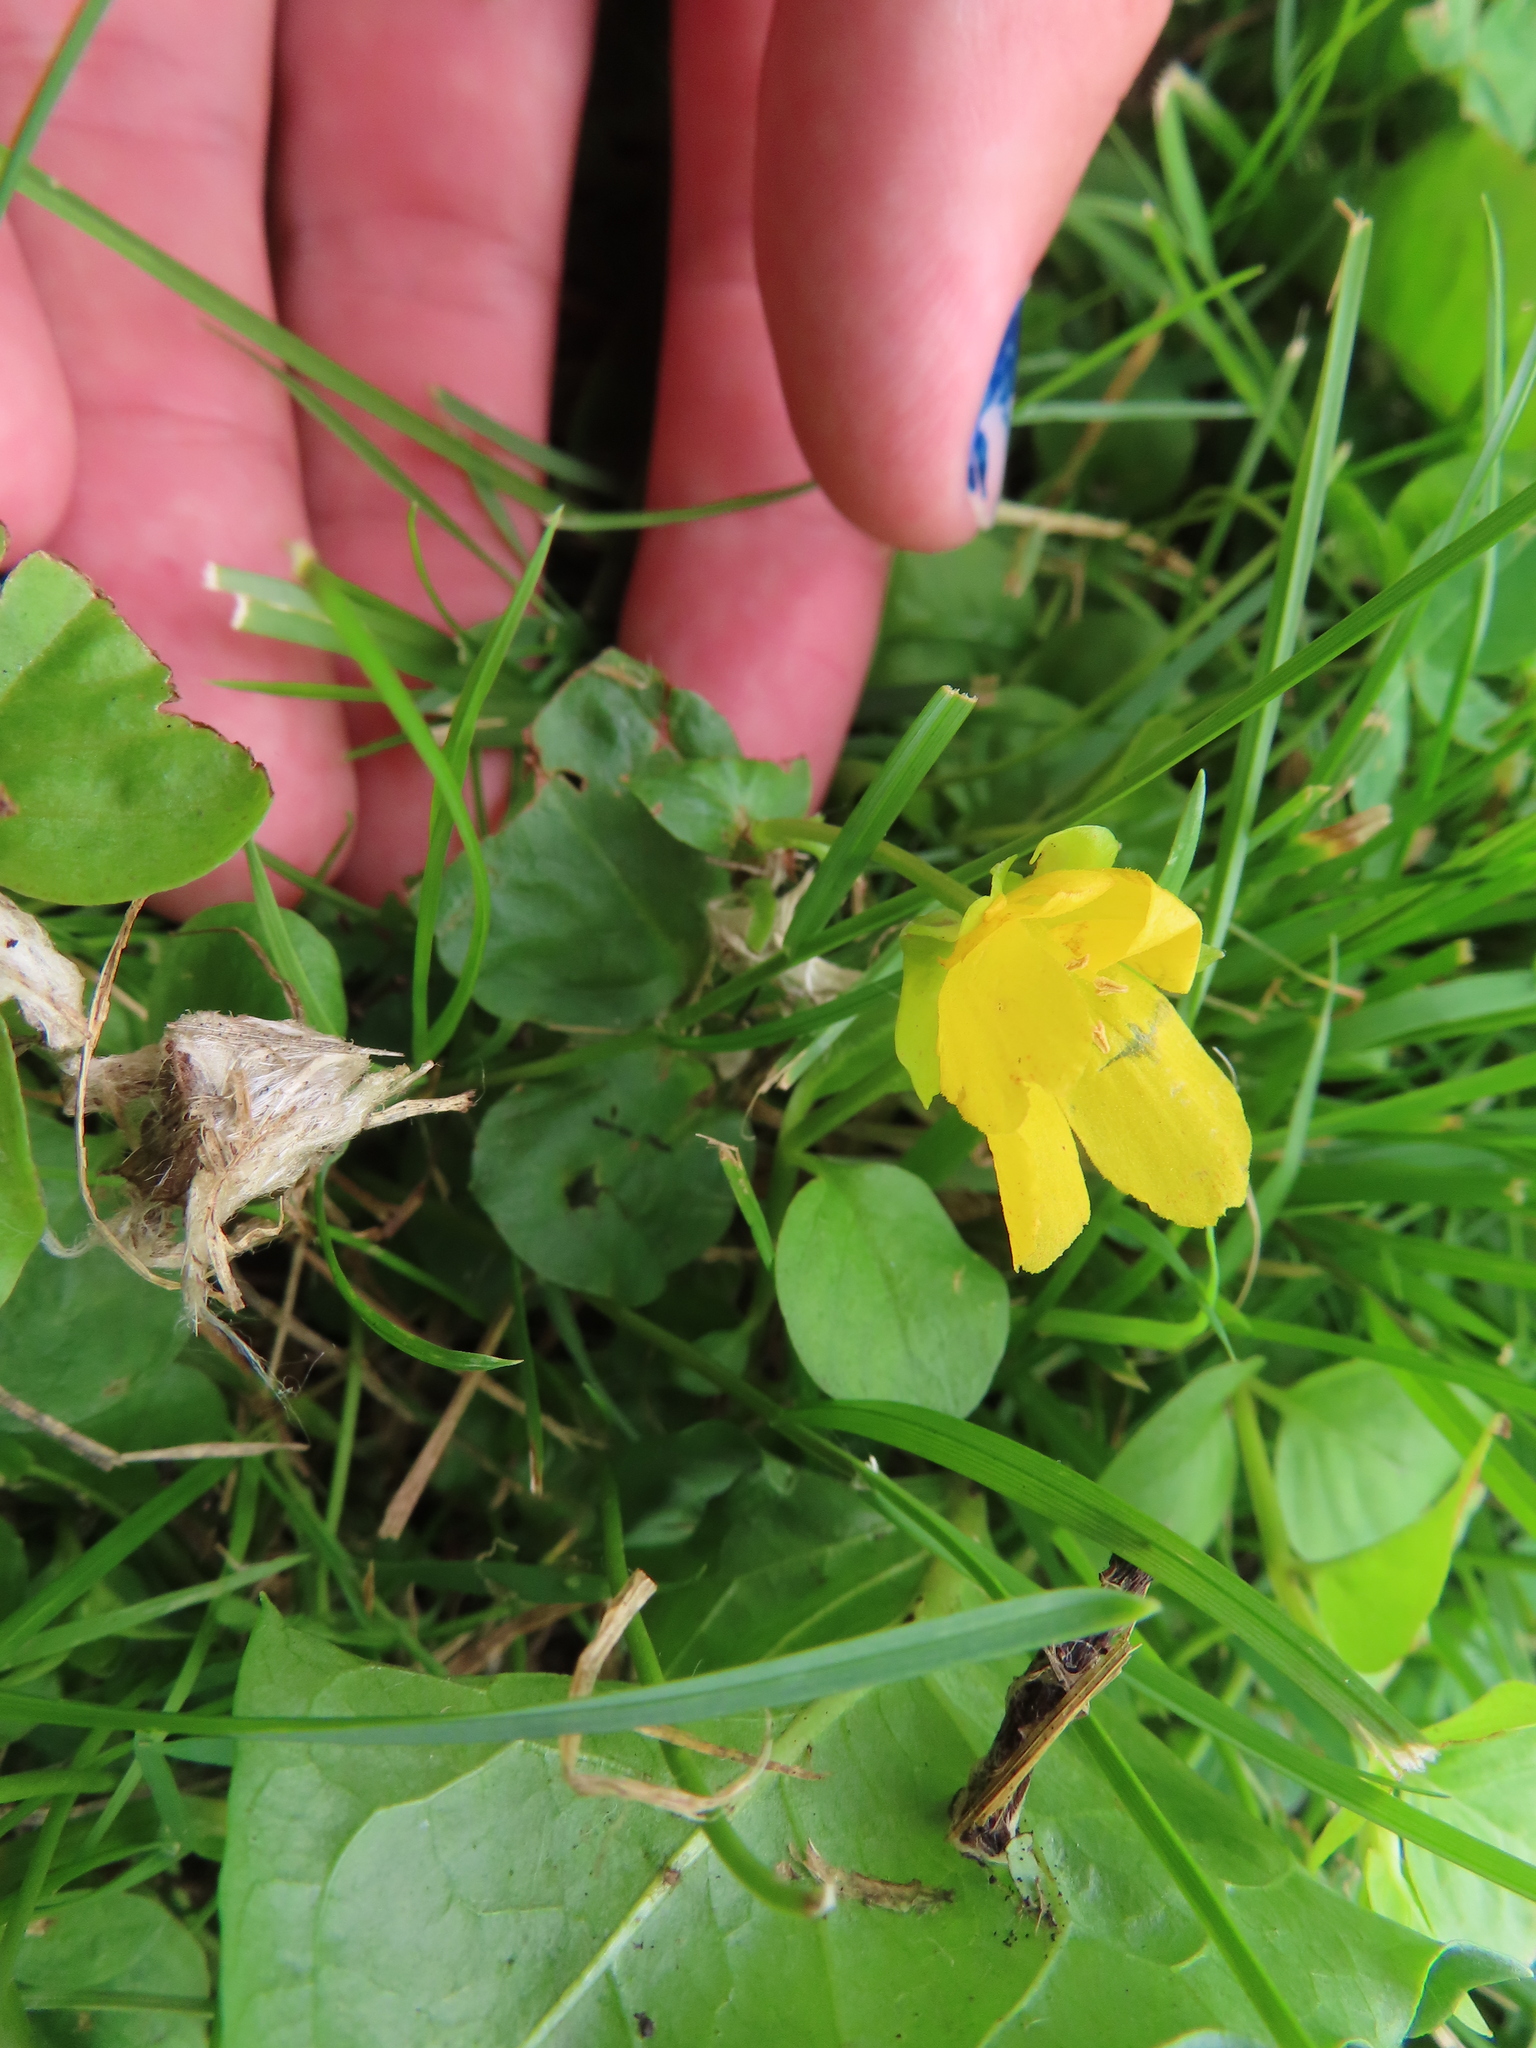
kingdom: Plantae
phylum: Tracheophyta
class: Magnoliopsida
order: Ericales
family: Primulaceae
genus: Lysimachia
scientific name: Lysimachia nummularia
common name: Moneywort
